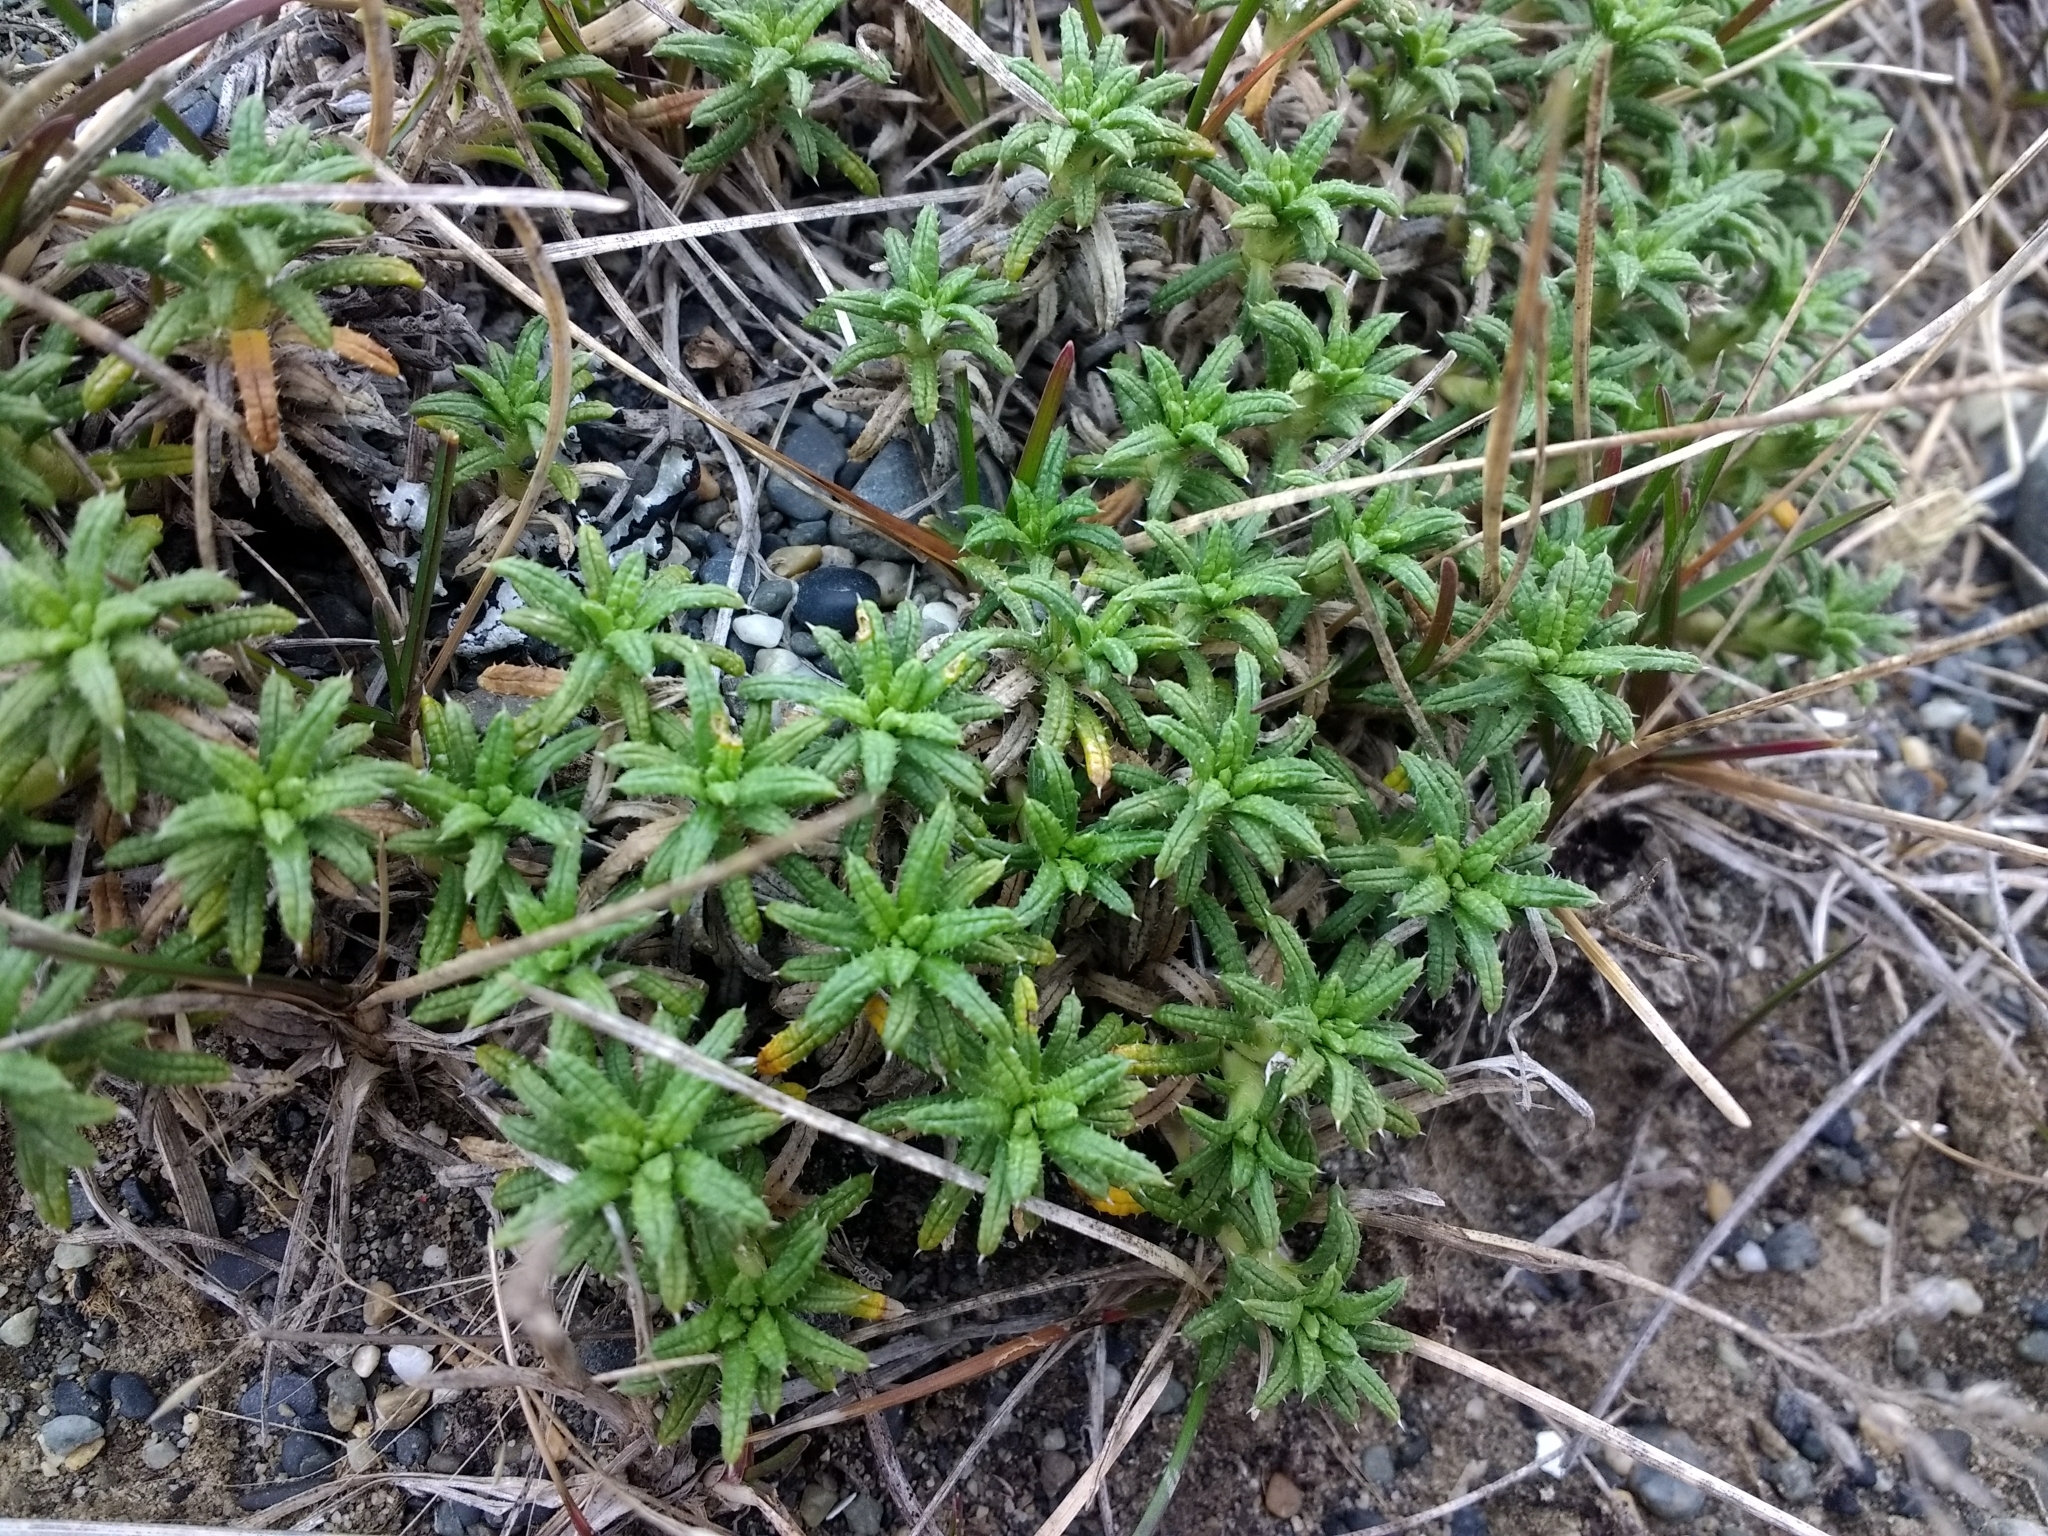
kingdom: Plantae
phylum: Tracheophyta
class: Magnoliopsida
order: Asterales
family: Asteraceae
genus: Perezia
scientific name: Perezia recurvata
